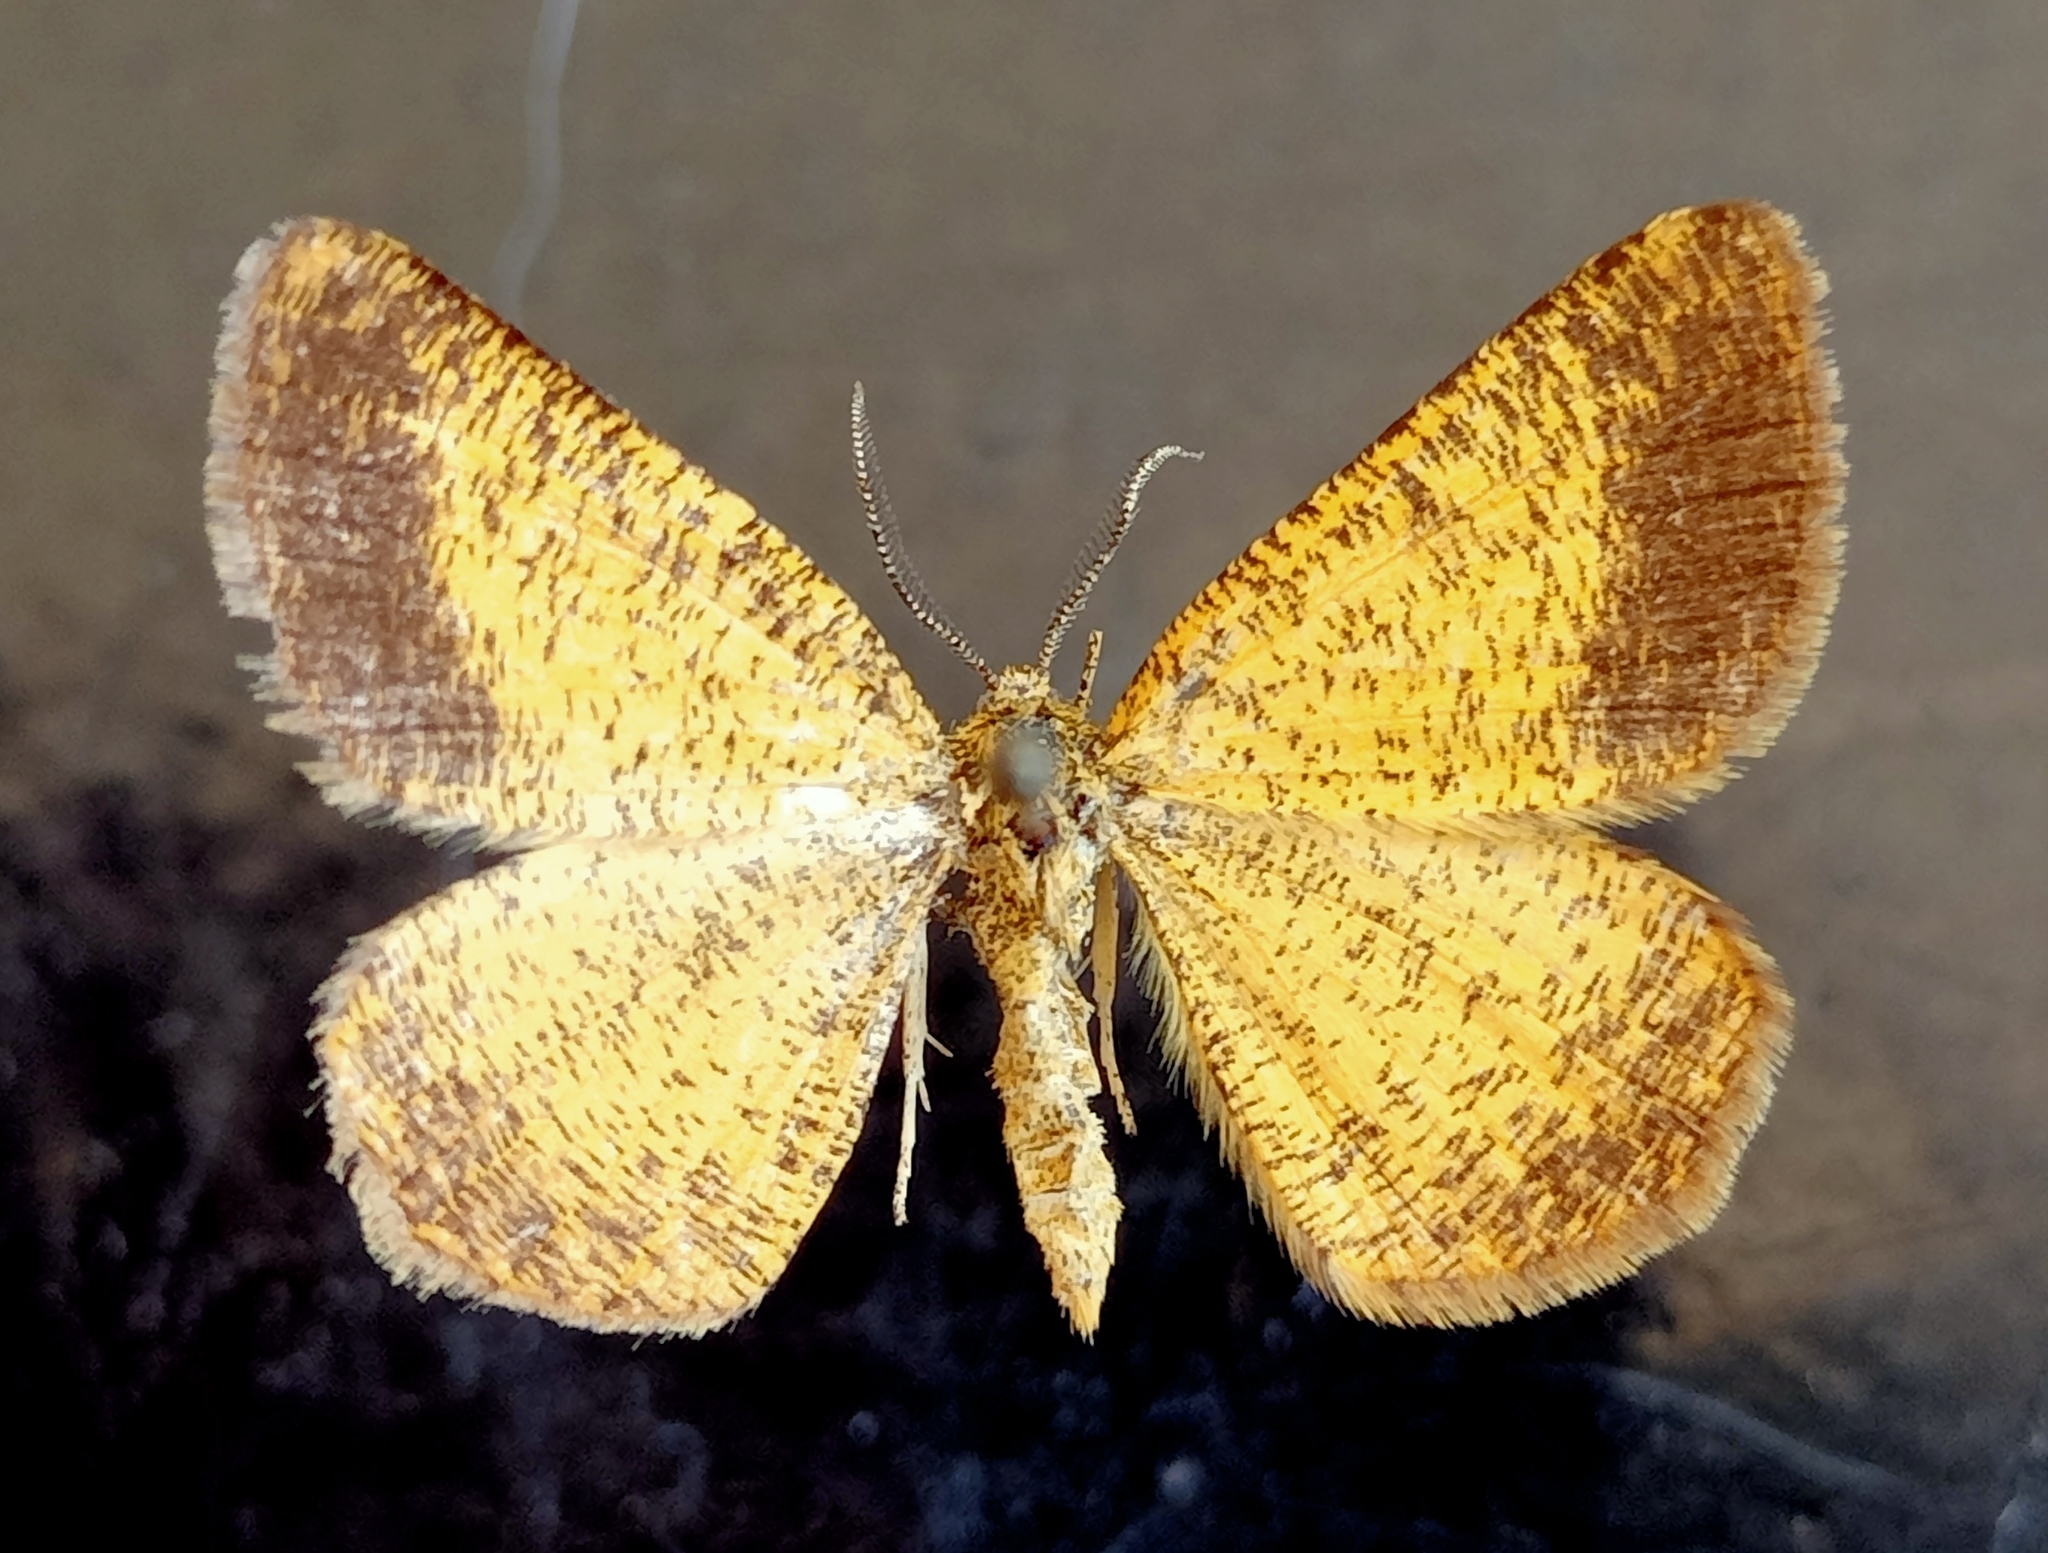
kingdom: Animalia
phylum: Arthropoda
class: Insecta
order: Lepidoptera
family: Geometridae
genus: Isturgia
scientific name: Isturgia roraria
